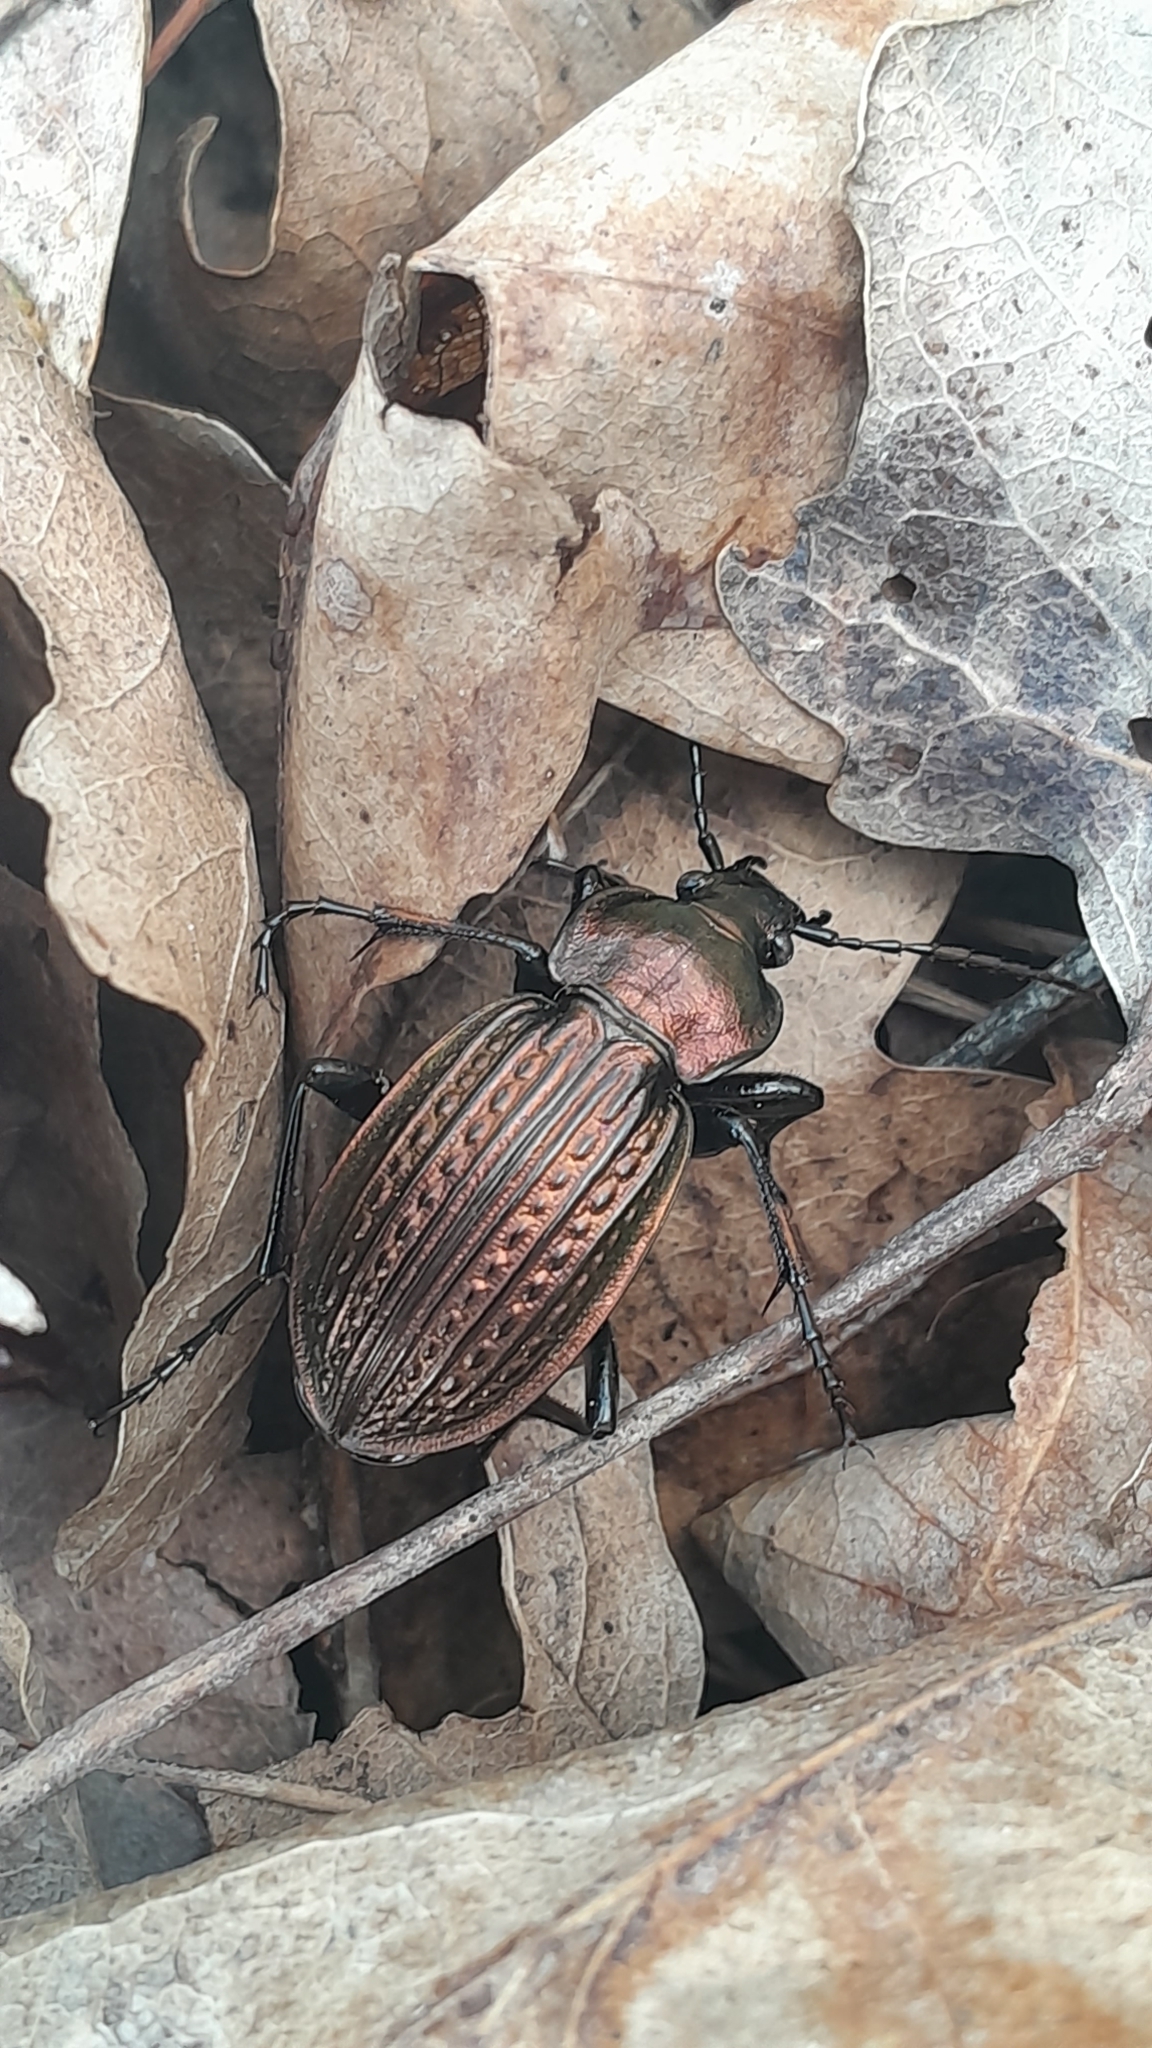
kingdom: Animalia
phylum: Arthropoda
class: Insecta
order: Coleoptera
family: Carabidae
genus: Carabus
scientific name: Carabus ulrichii
